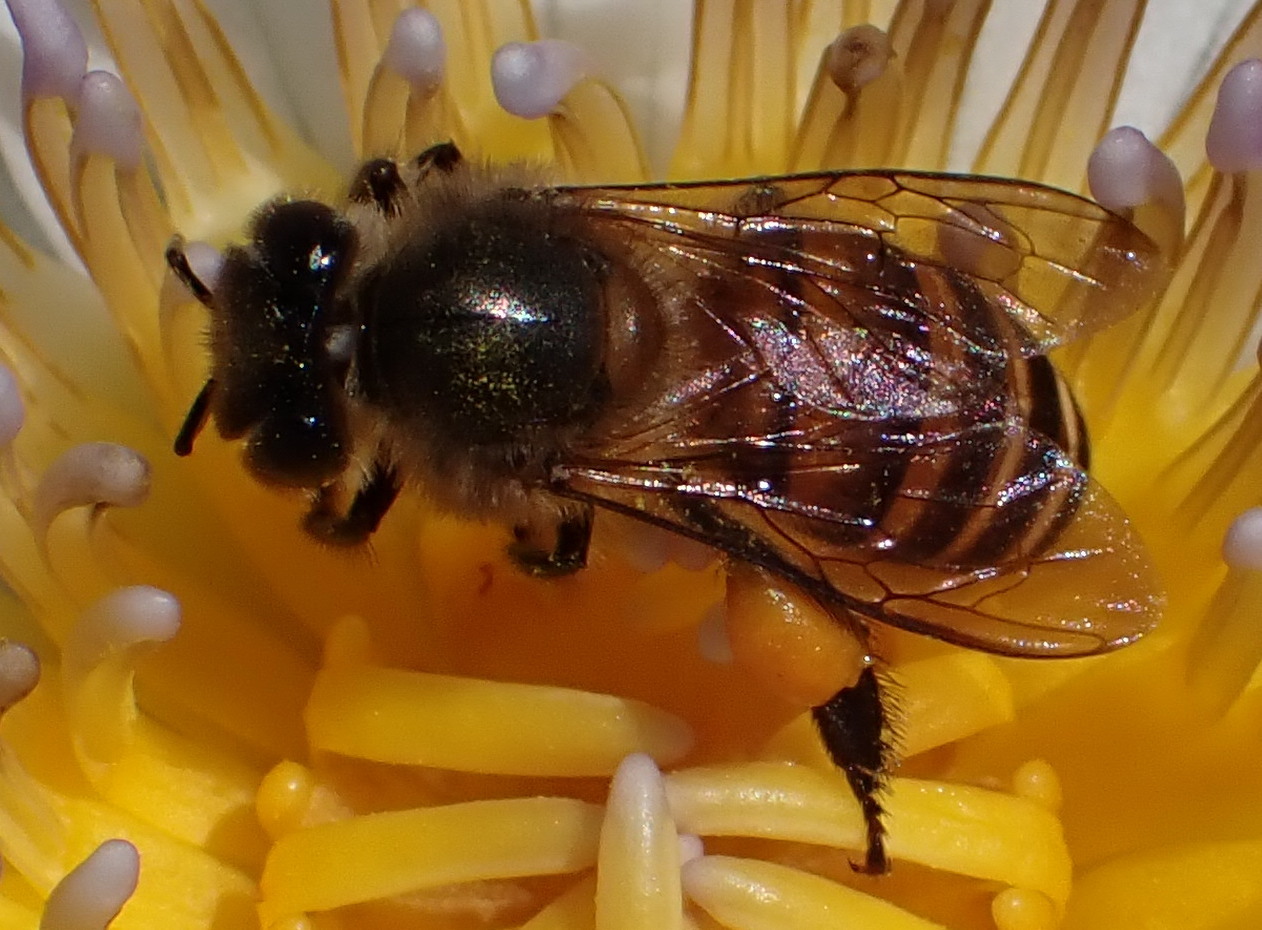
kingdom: Animalia
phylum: Arthropoda
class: Insecta
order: Hymenoptera
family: Apidae
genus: Apis
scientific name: Apis cerana
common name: Honey bee
